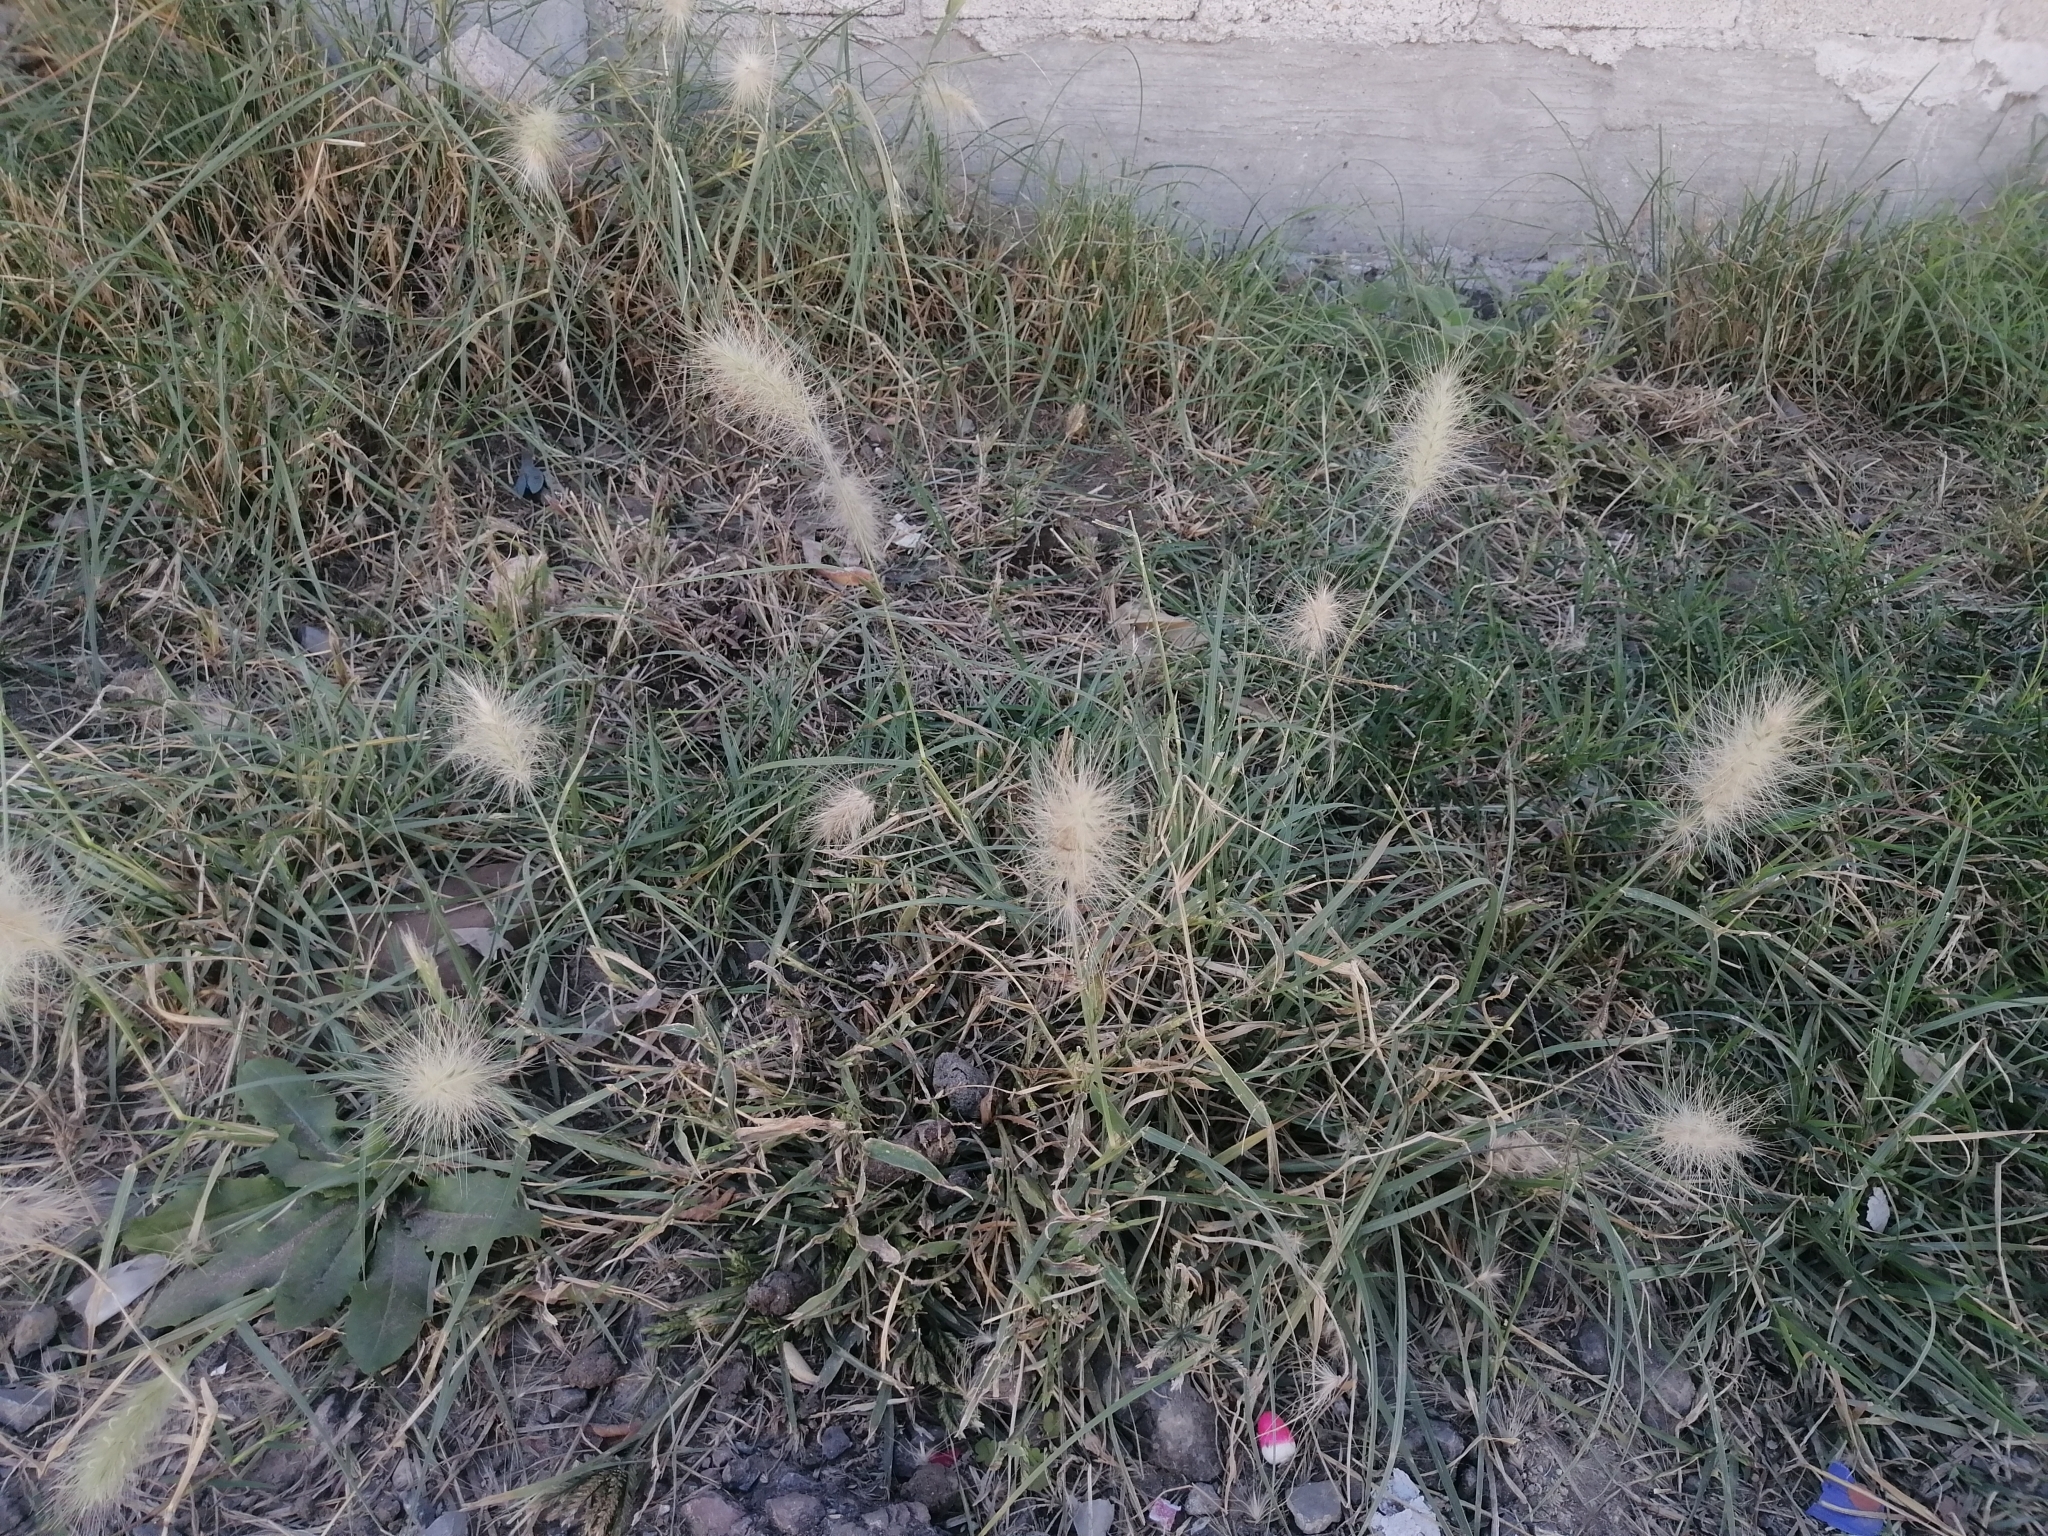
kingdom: Plantae
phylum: Tracheophyta
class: Liliopsida
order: Poales
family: Poaceae
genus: Cenchrus
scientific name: Cenchrus longisetus
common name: Feathertop
